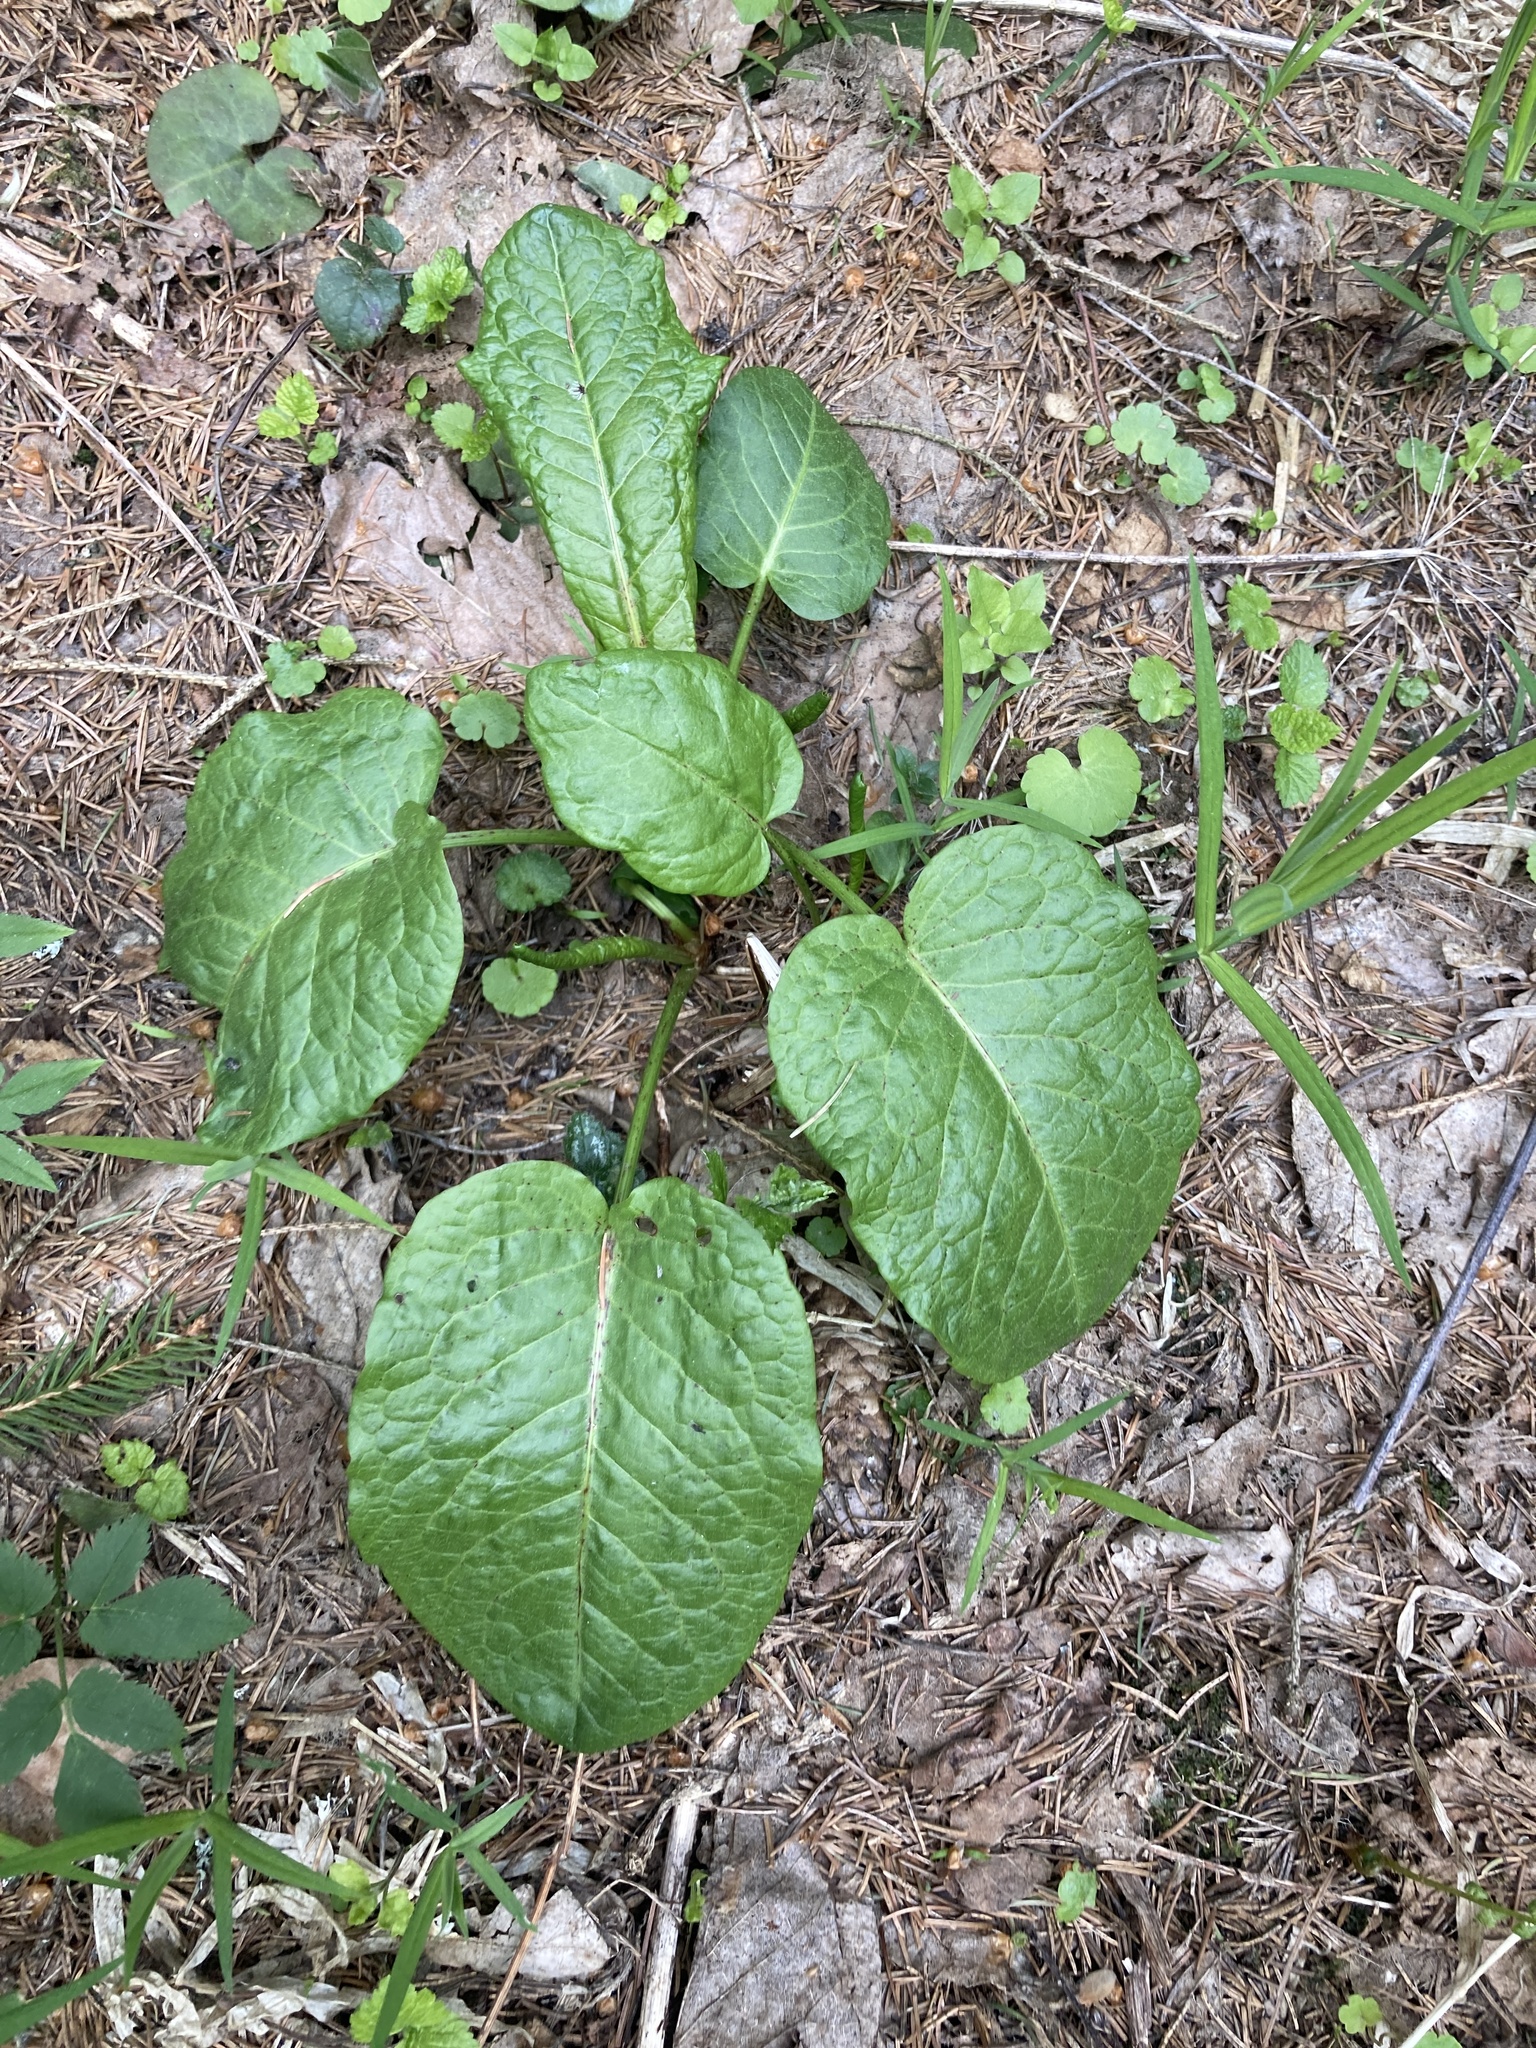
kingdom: Plantae
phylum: Tracheophyta
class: Magnoliopsida
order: Caryophyllales
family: Polygonaceae
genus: Rumex
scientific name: Rumex obtusifolius
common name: Bitter dock
